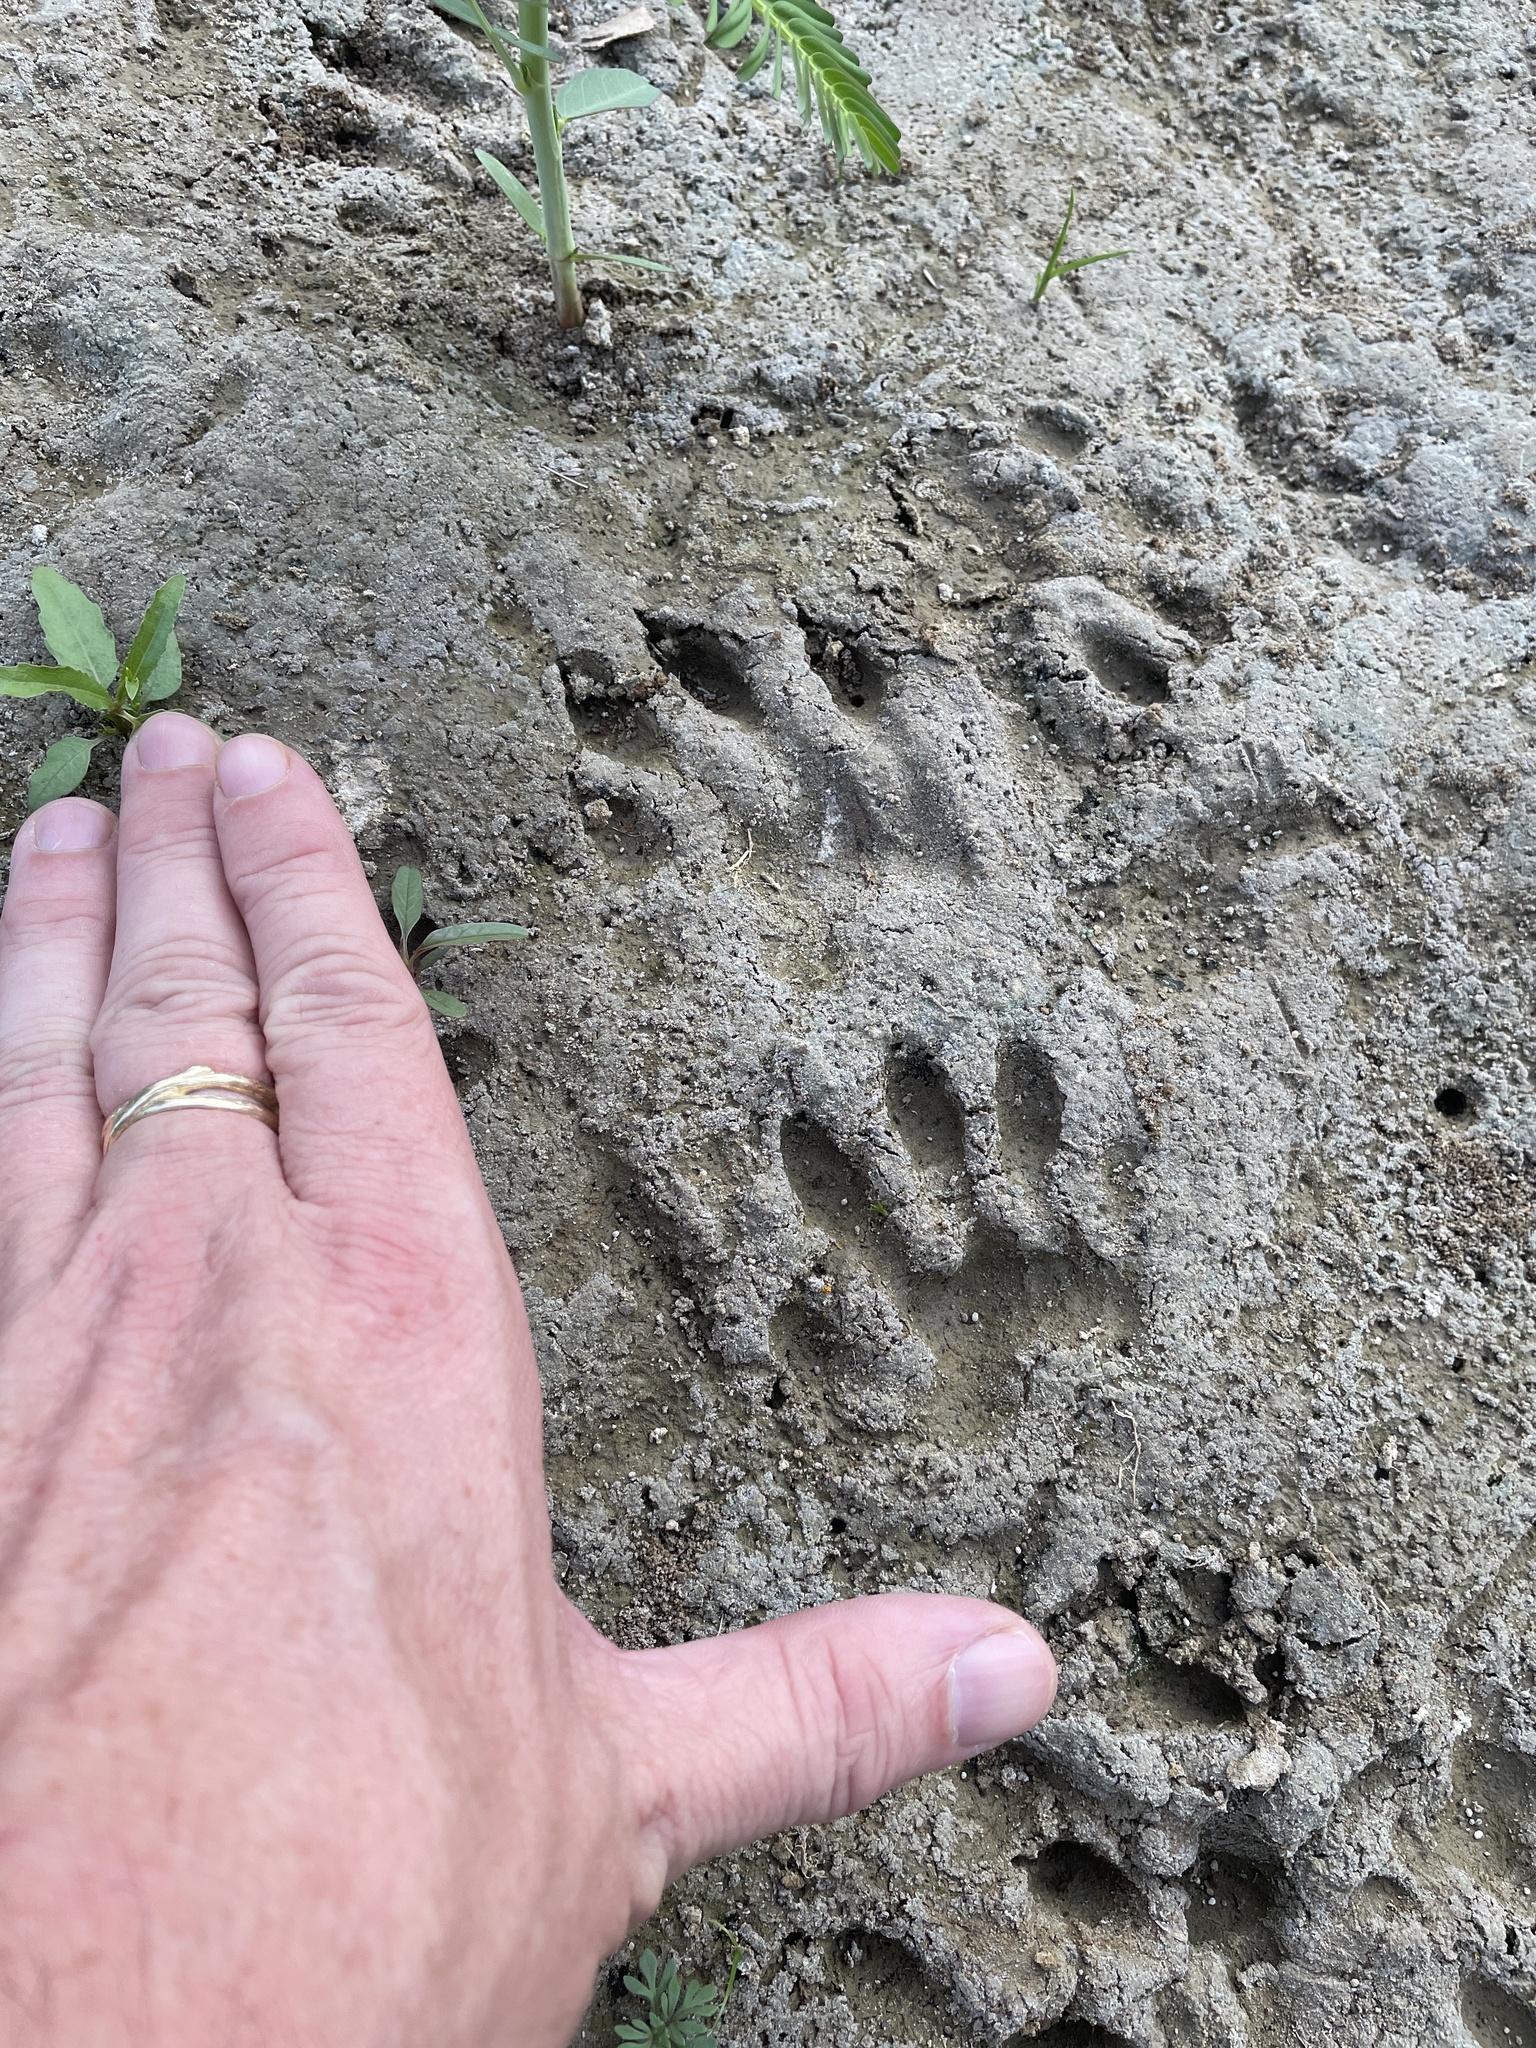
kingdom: Animalia
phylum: Chordata
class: Mammalia
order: Carnivora
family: Procyonidae
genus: Procyon
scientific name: Procyon lotor
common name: Raccoon
